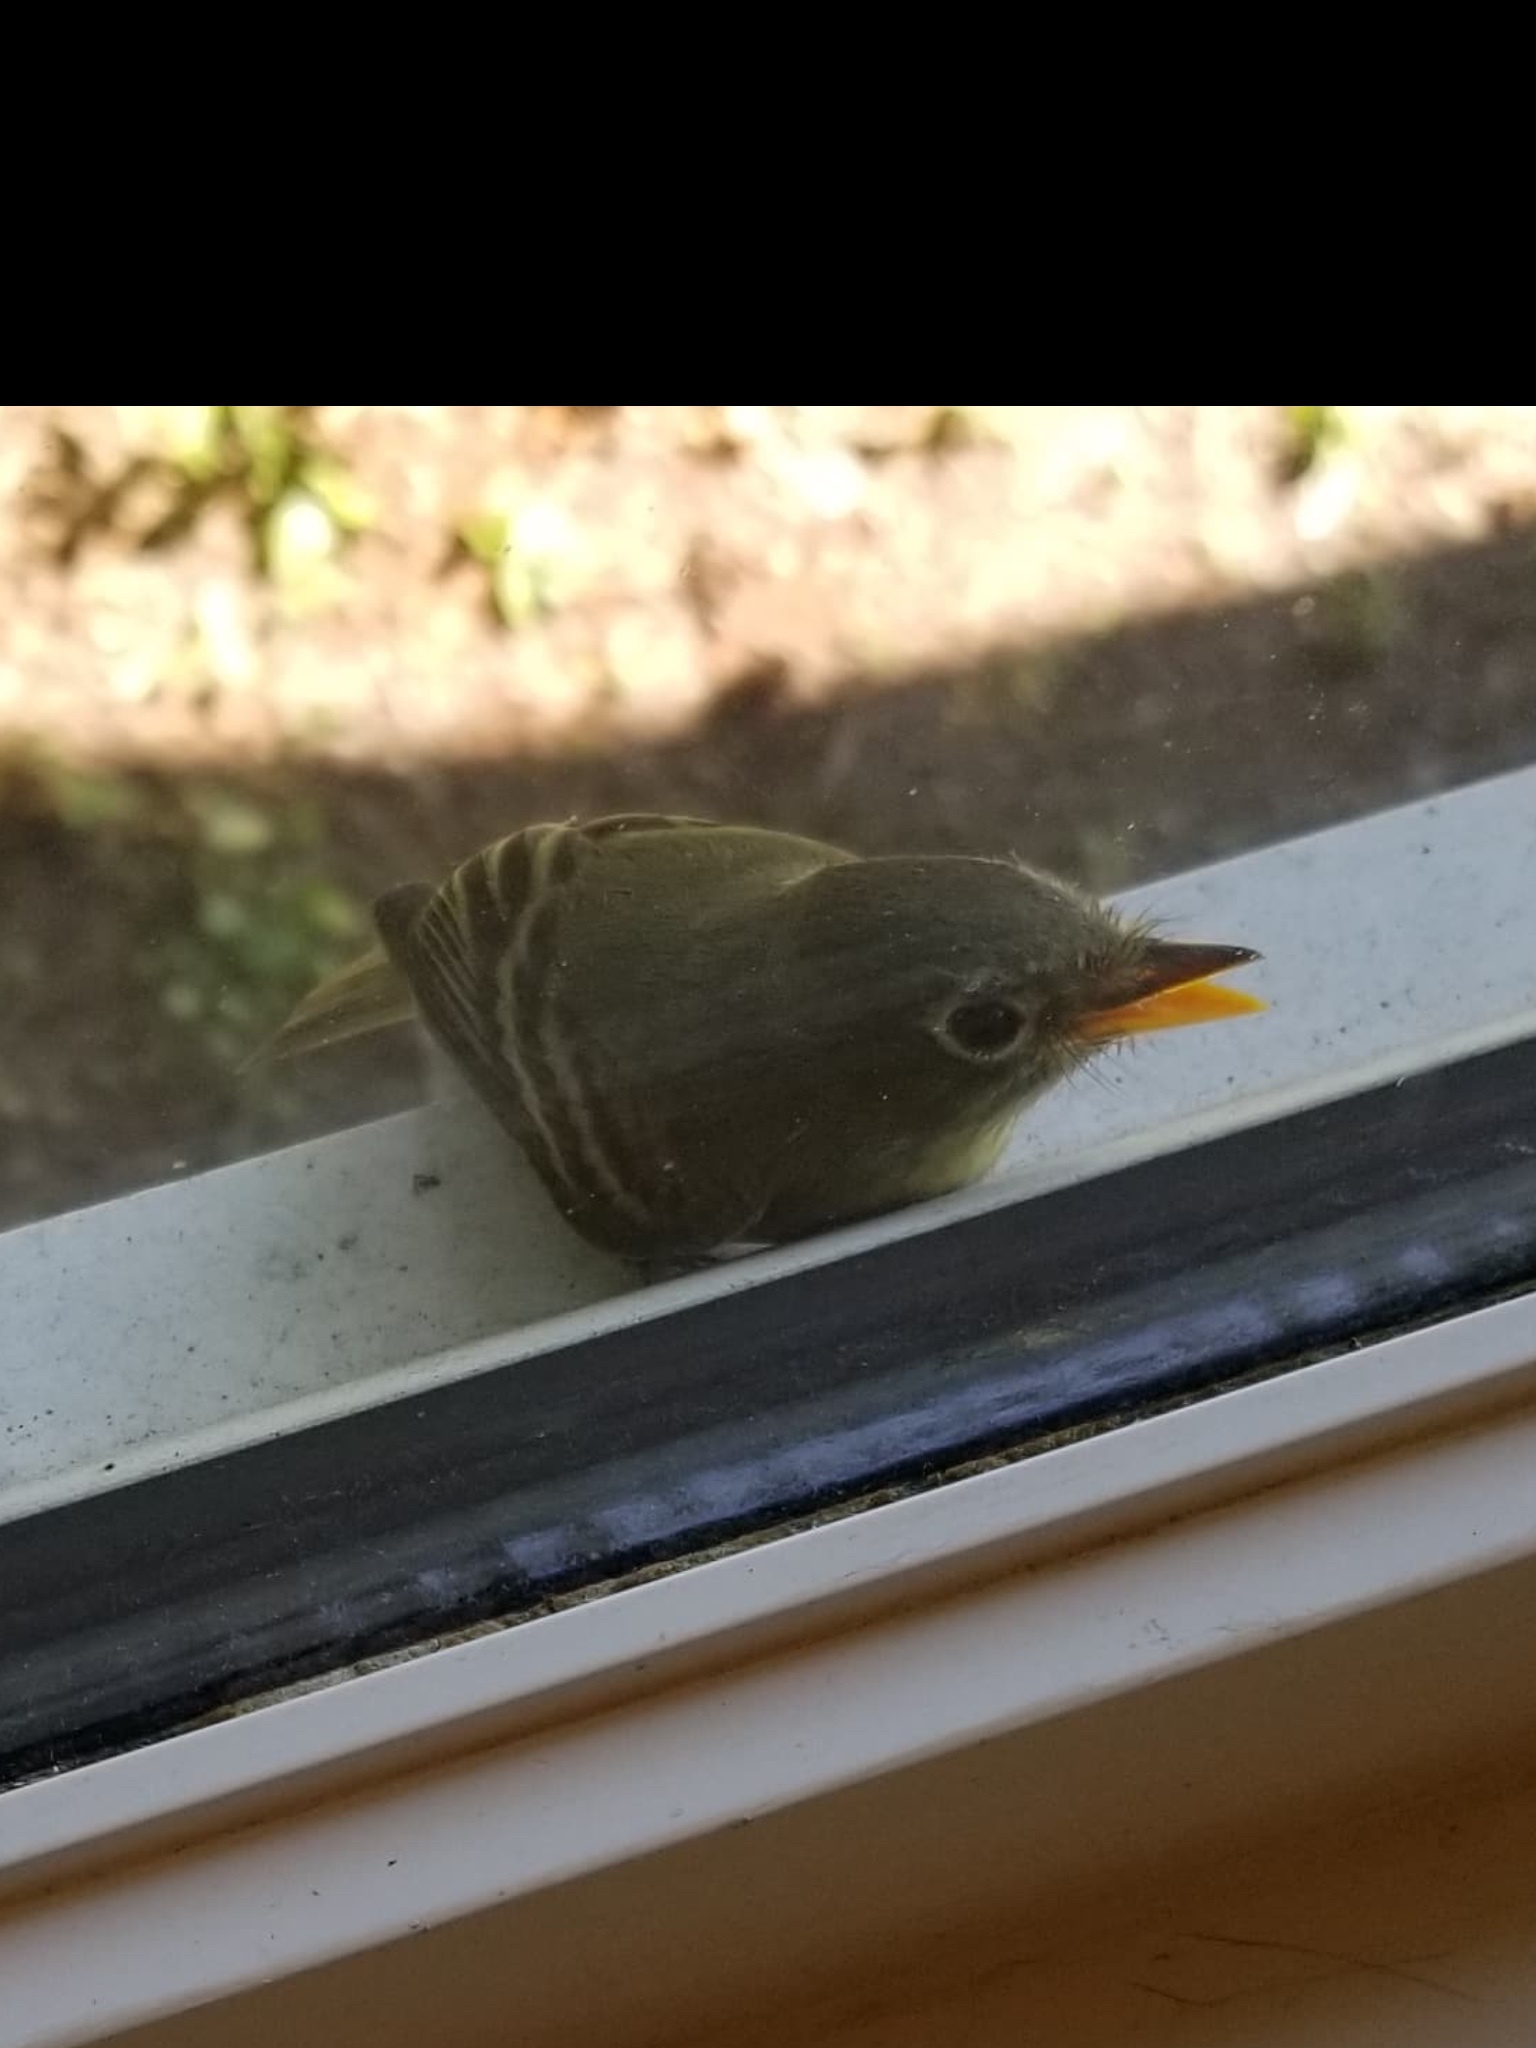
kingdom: Animalia
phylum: Chordata
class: Aves
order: Passeriformes
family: Tyrannidae
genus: Empidonax
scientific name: Empidonax difficilis
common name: Pacific-slope flycatcher
